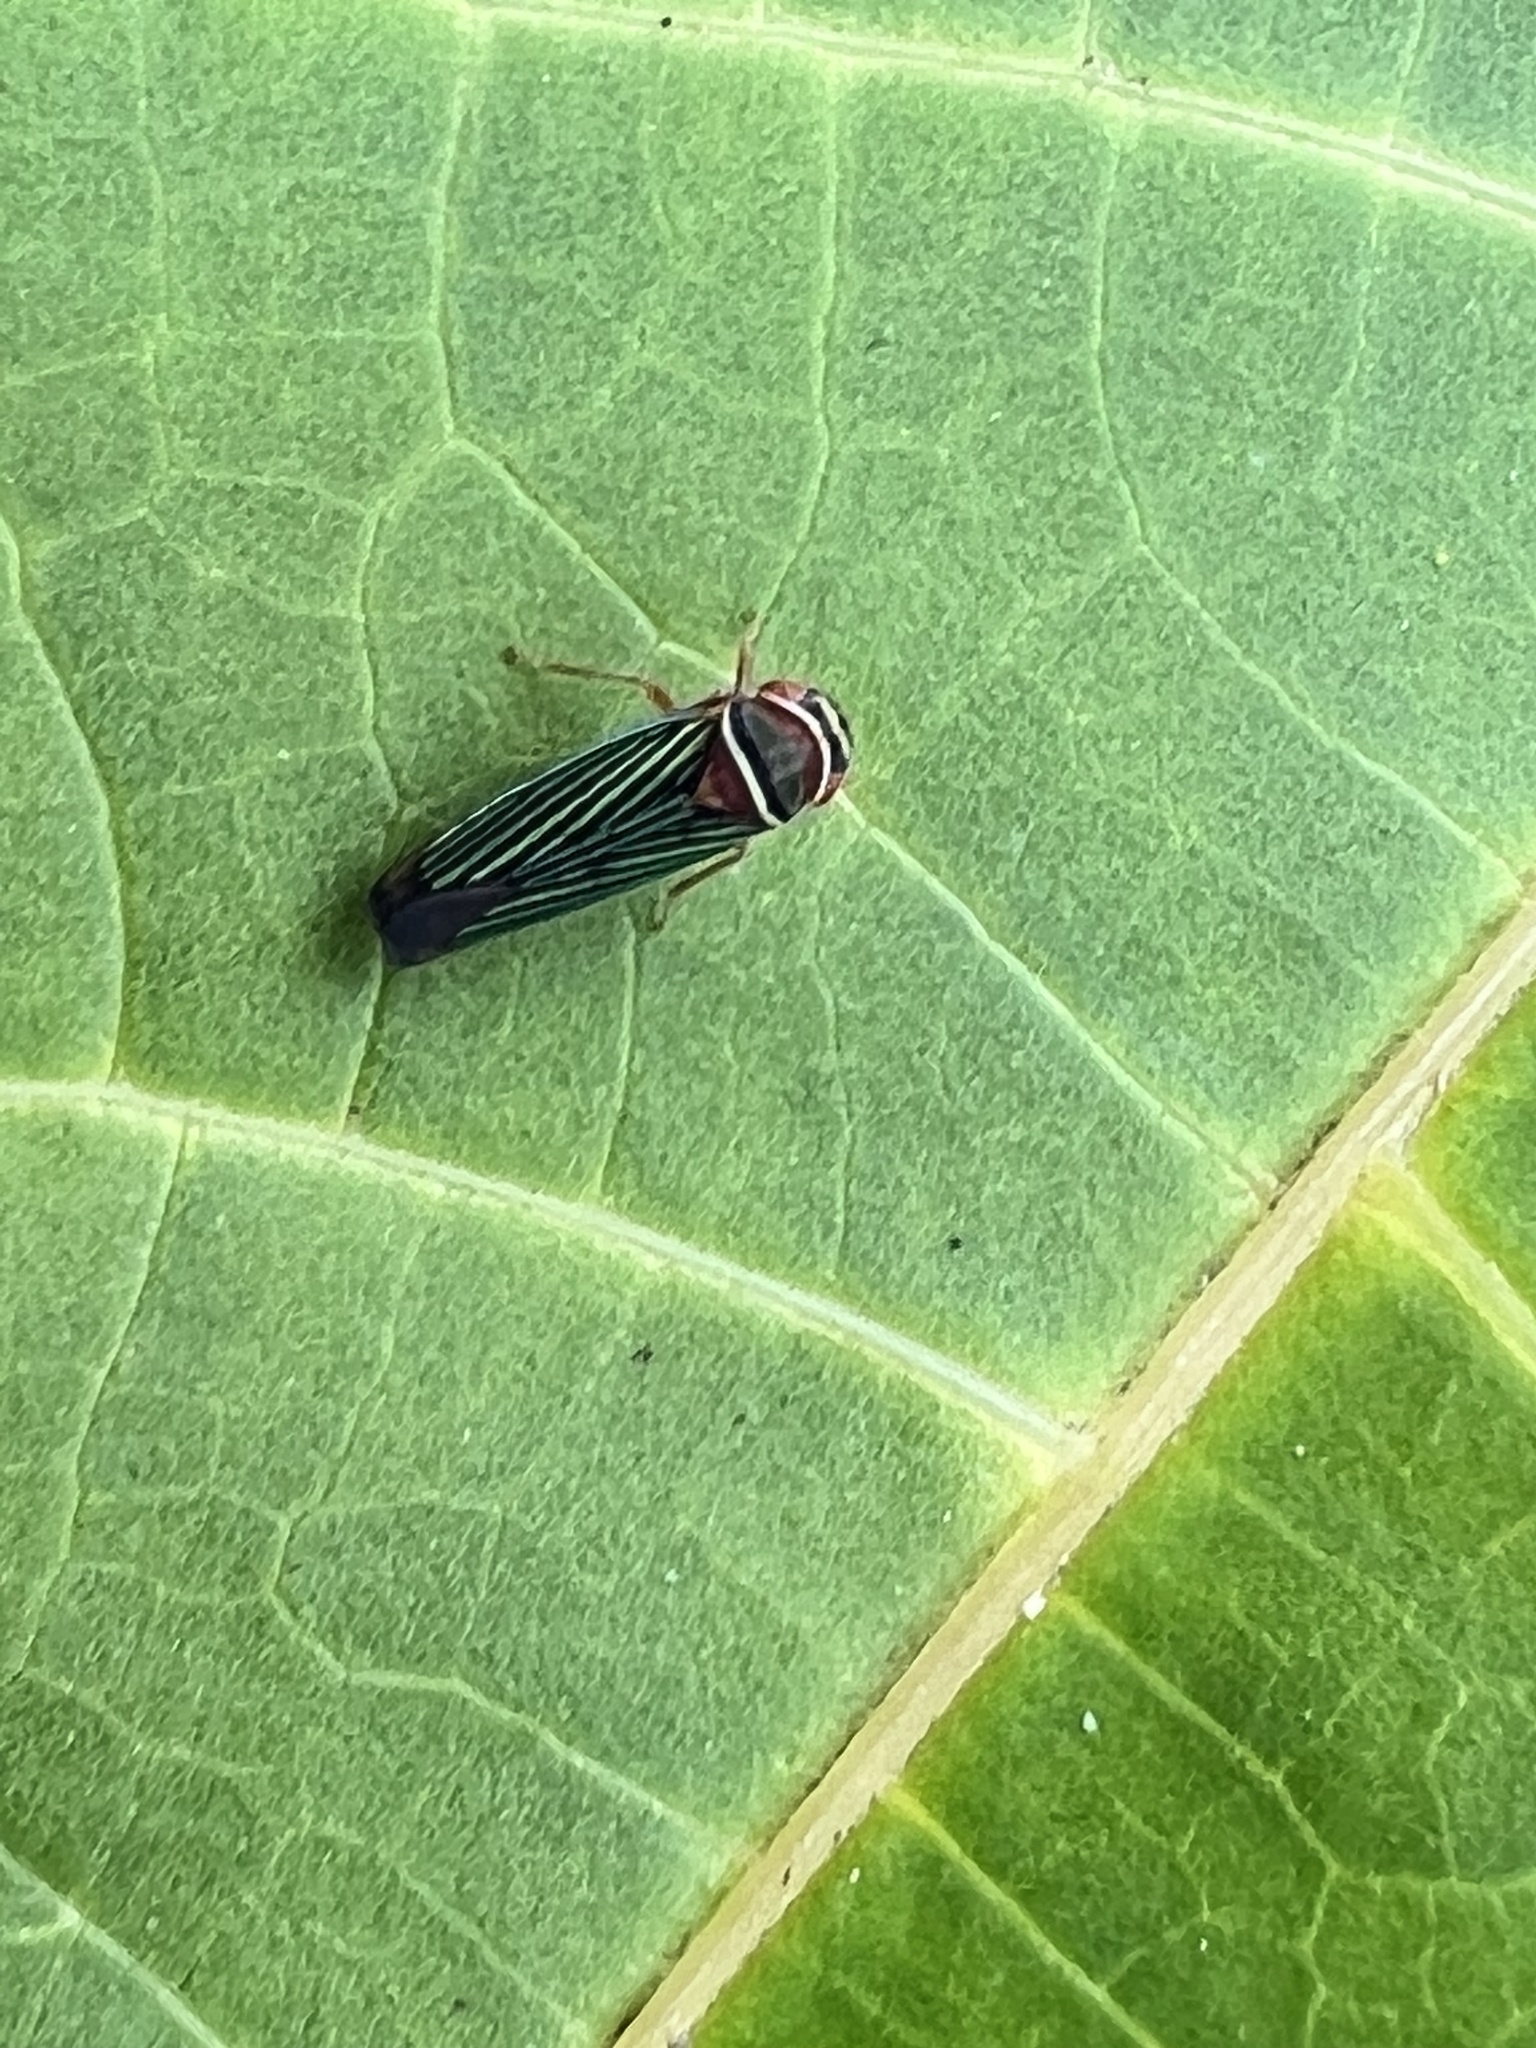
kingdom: Animalia
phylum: Arthropoda
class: Insecta
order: Hemiptera
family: Cicadellidae
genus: Tylozygus
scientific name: Tylozygus fuscolineellus
